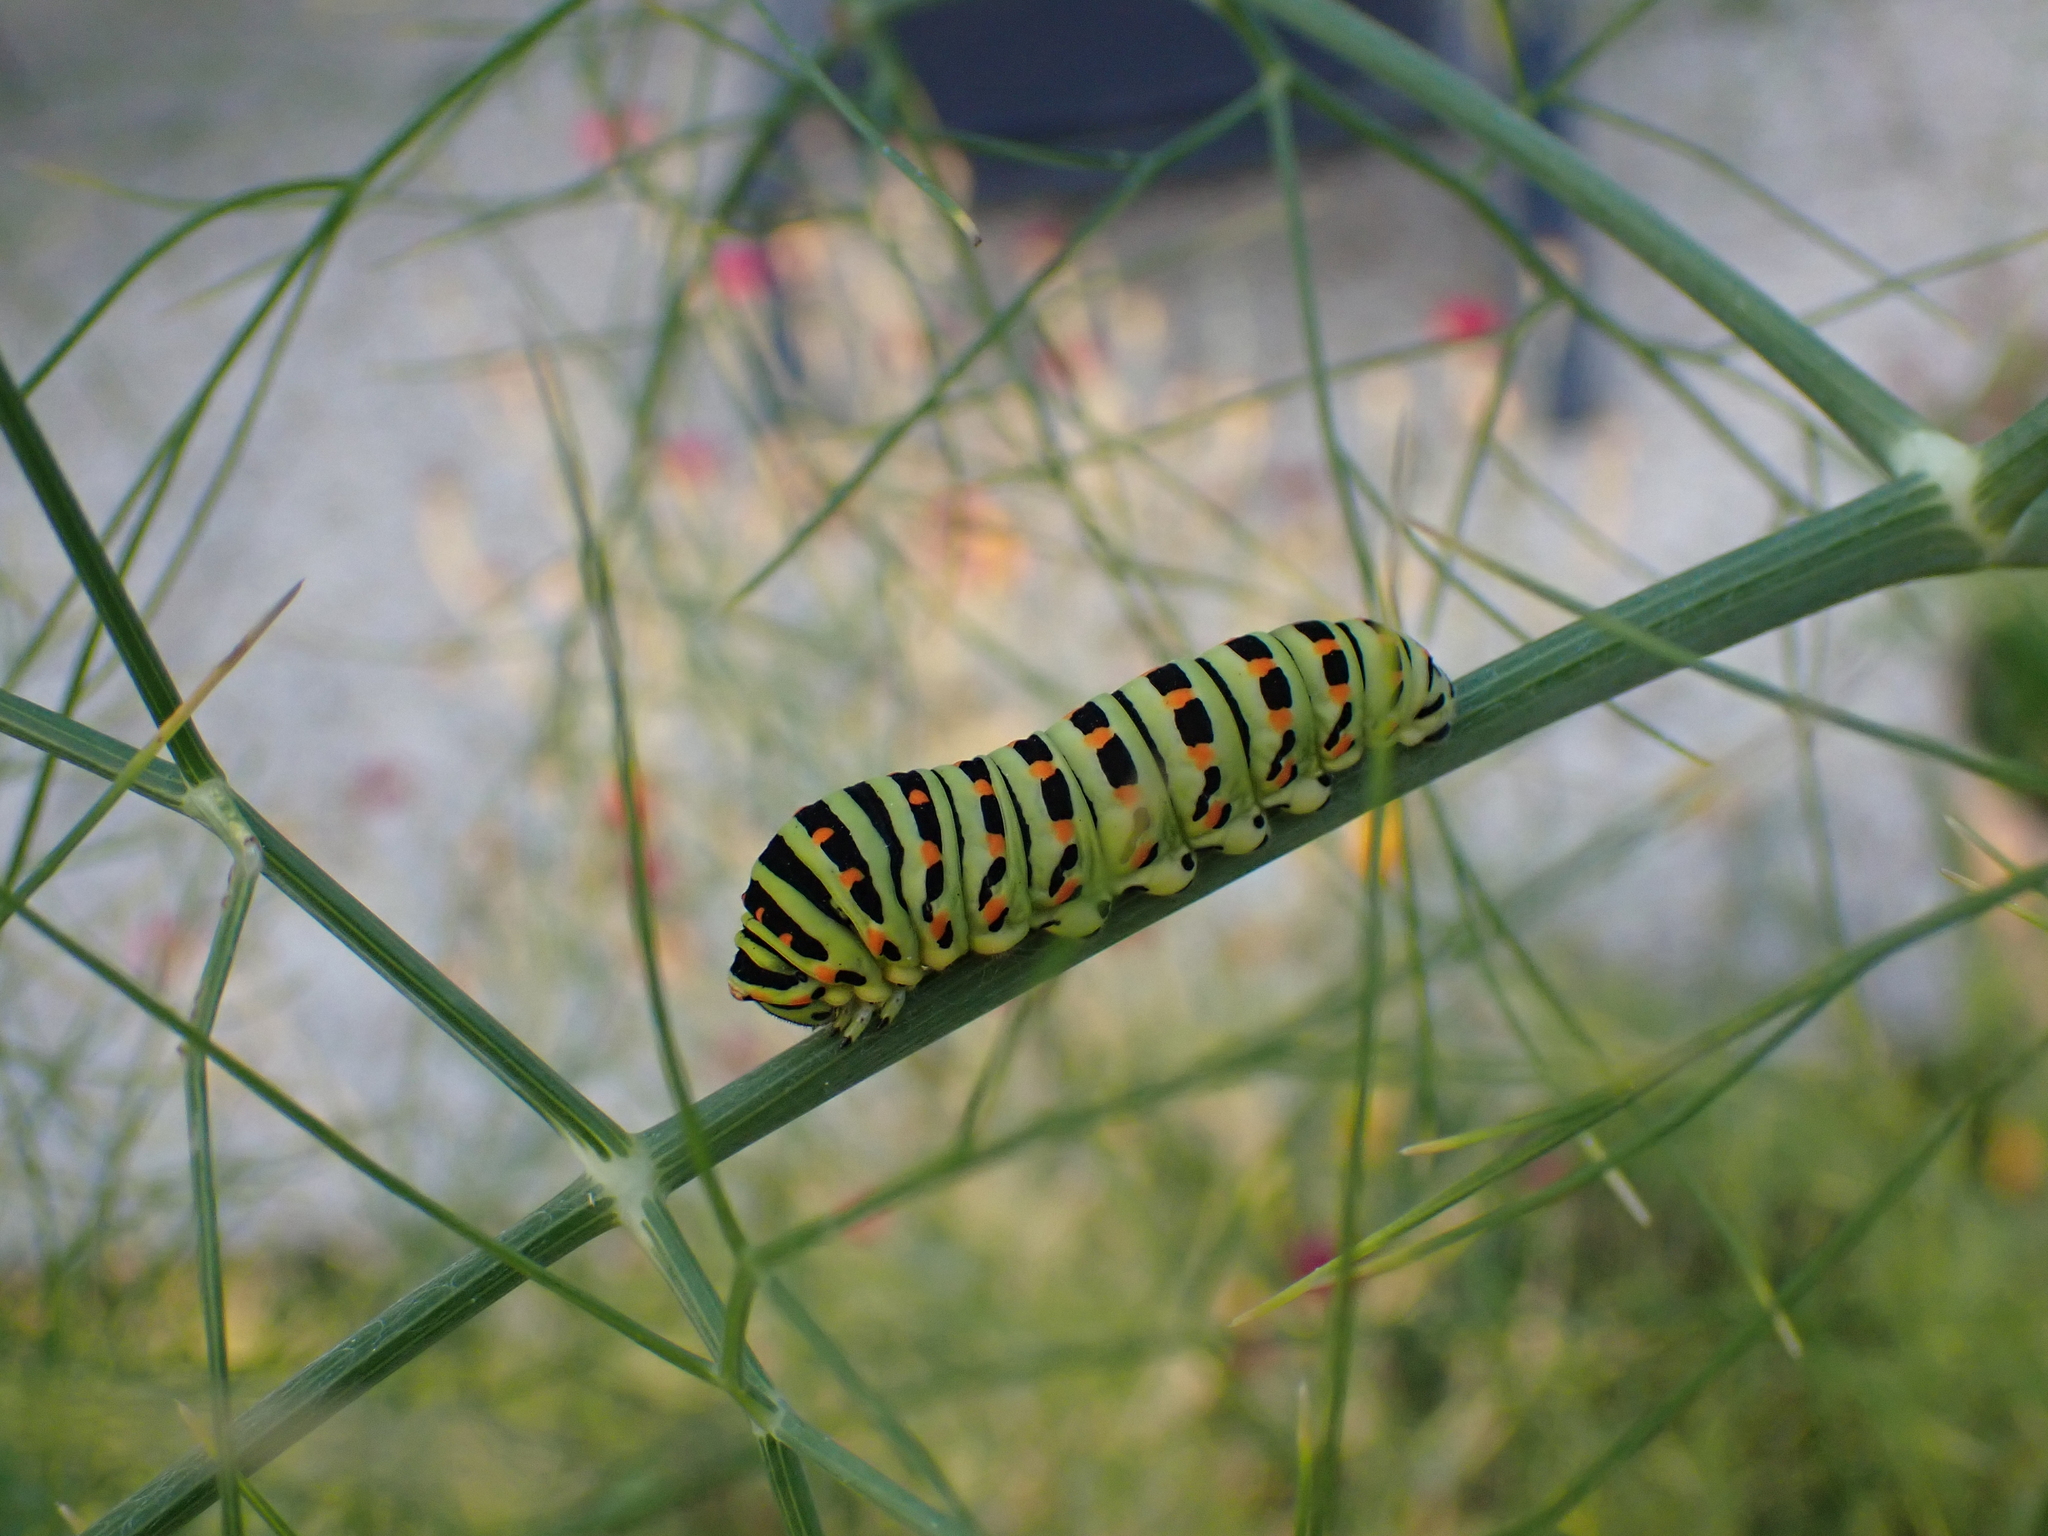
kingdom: Animalia
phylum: Arthropoda
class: Insecta
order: Lepidoptera
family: Papilionidae
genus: Papilio
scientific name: Papilio machaon
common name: Swallowtail
